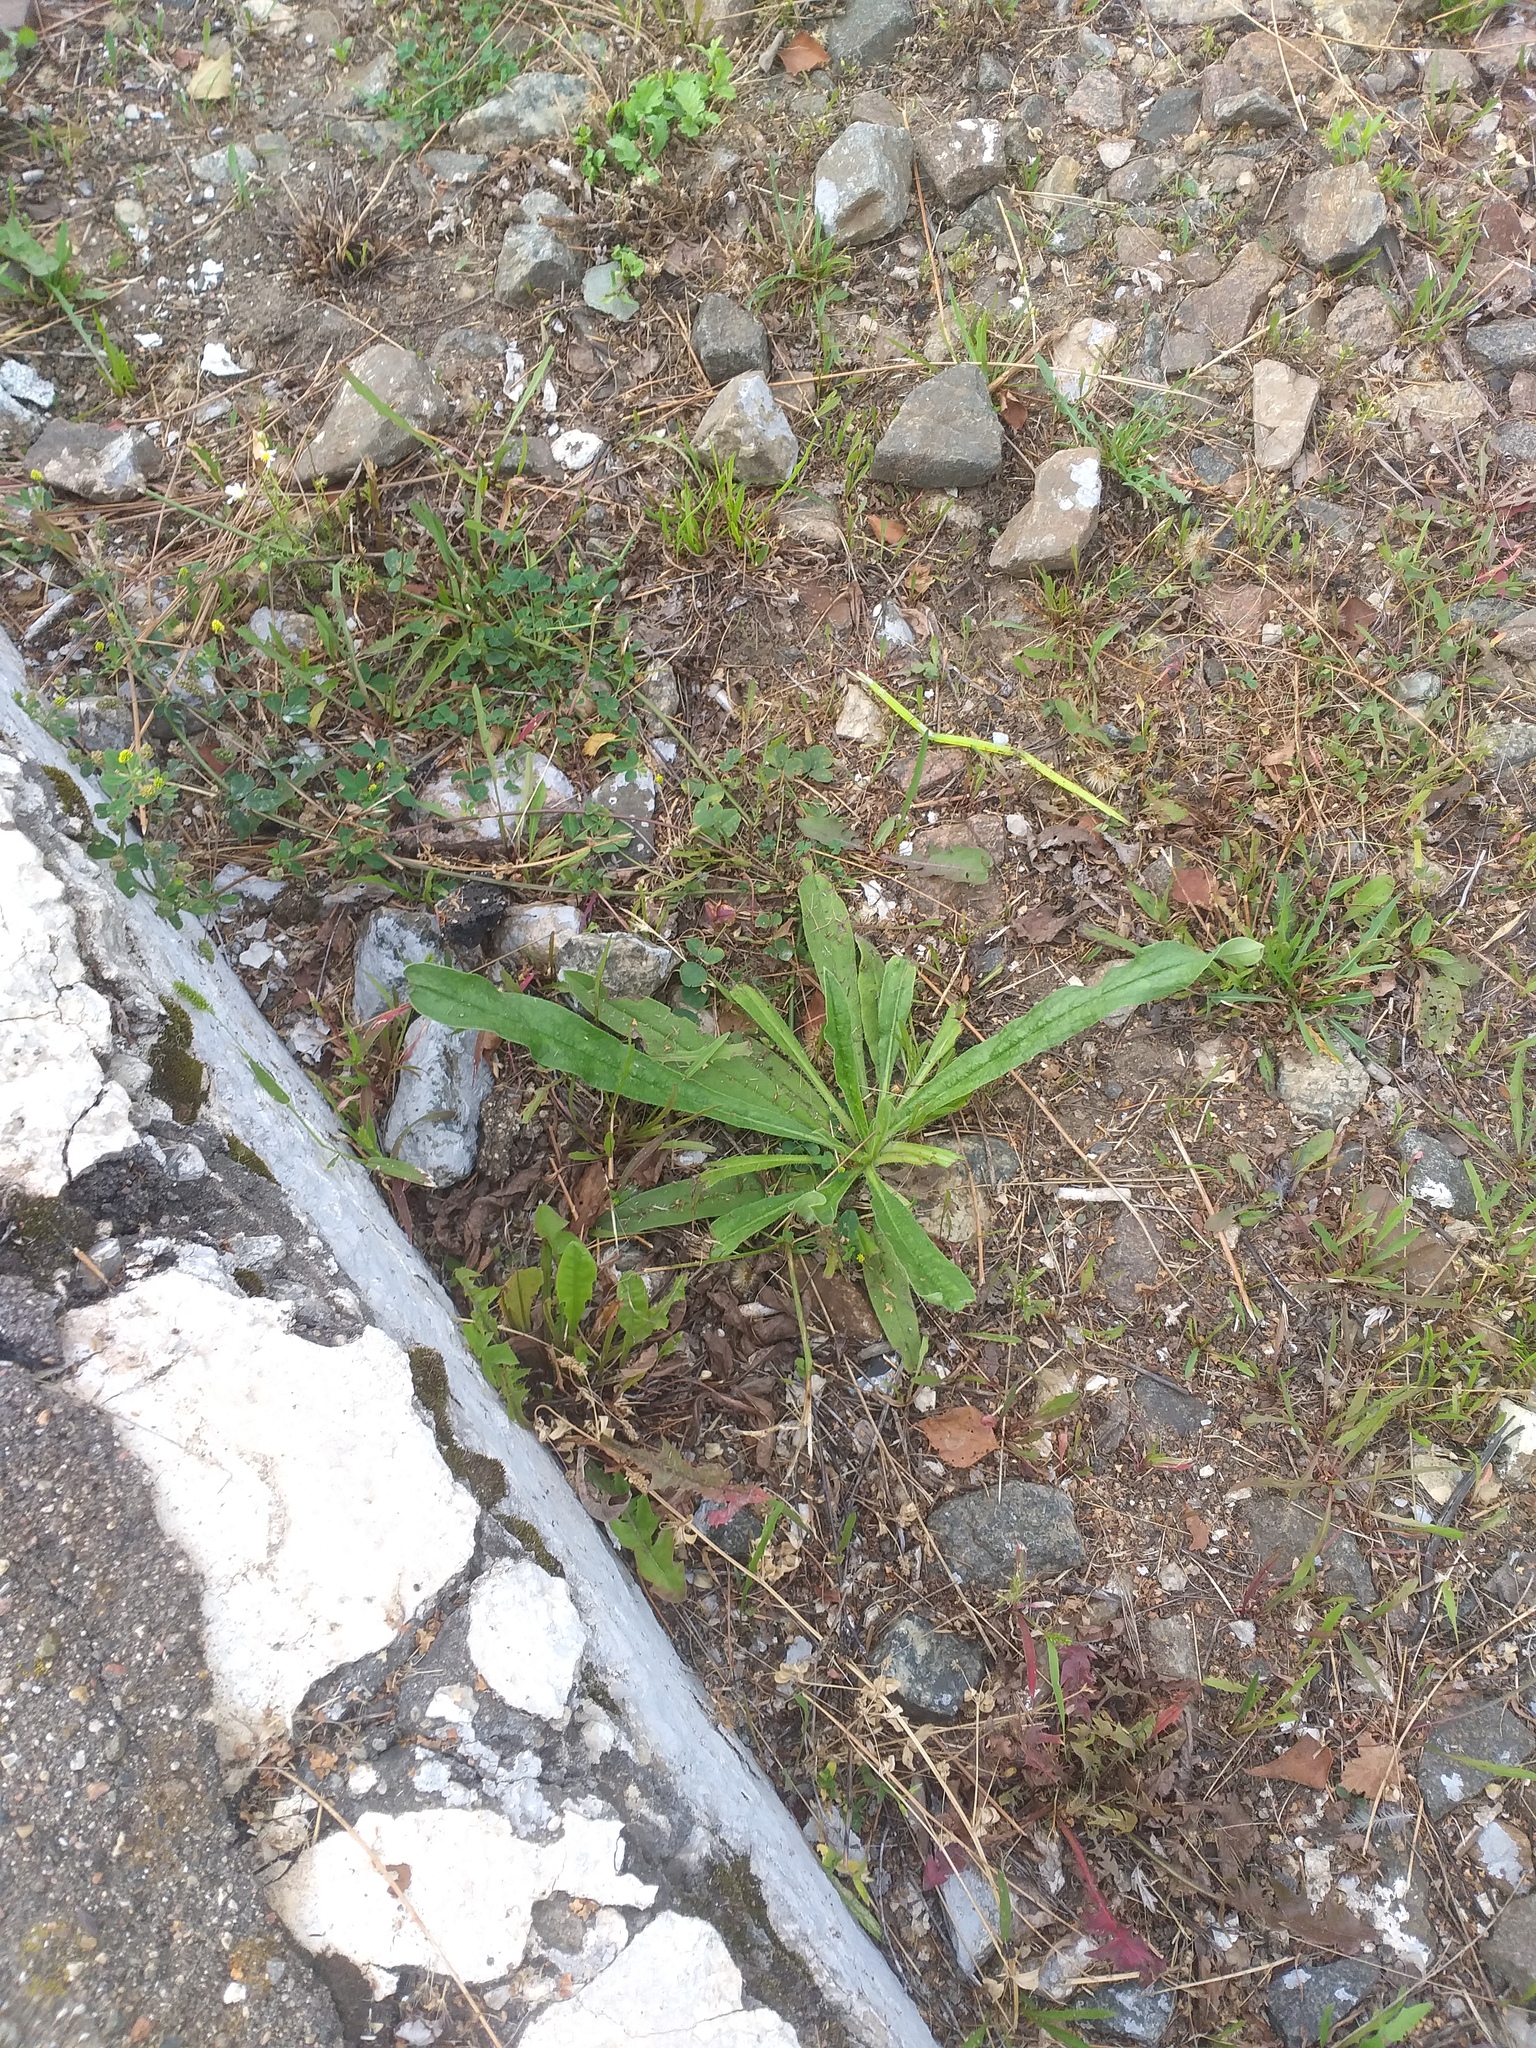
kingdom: Plantae
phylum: Tracheophyta
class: Magnoliopsida
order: Boraginales
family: Boraginaceae
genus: Echium
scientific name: Echium vulgare
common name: Common viper's bugloss
